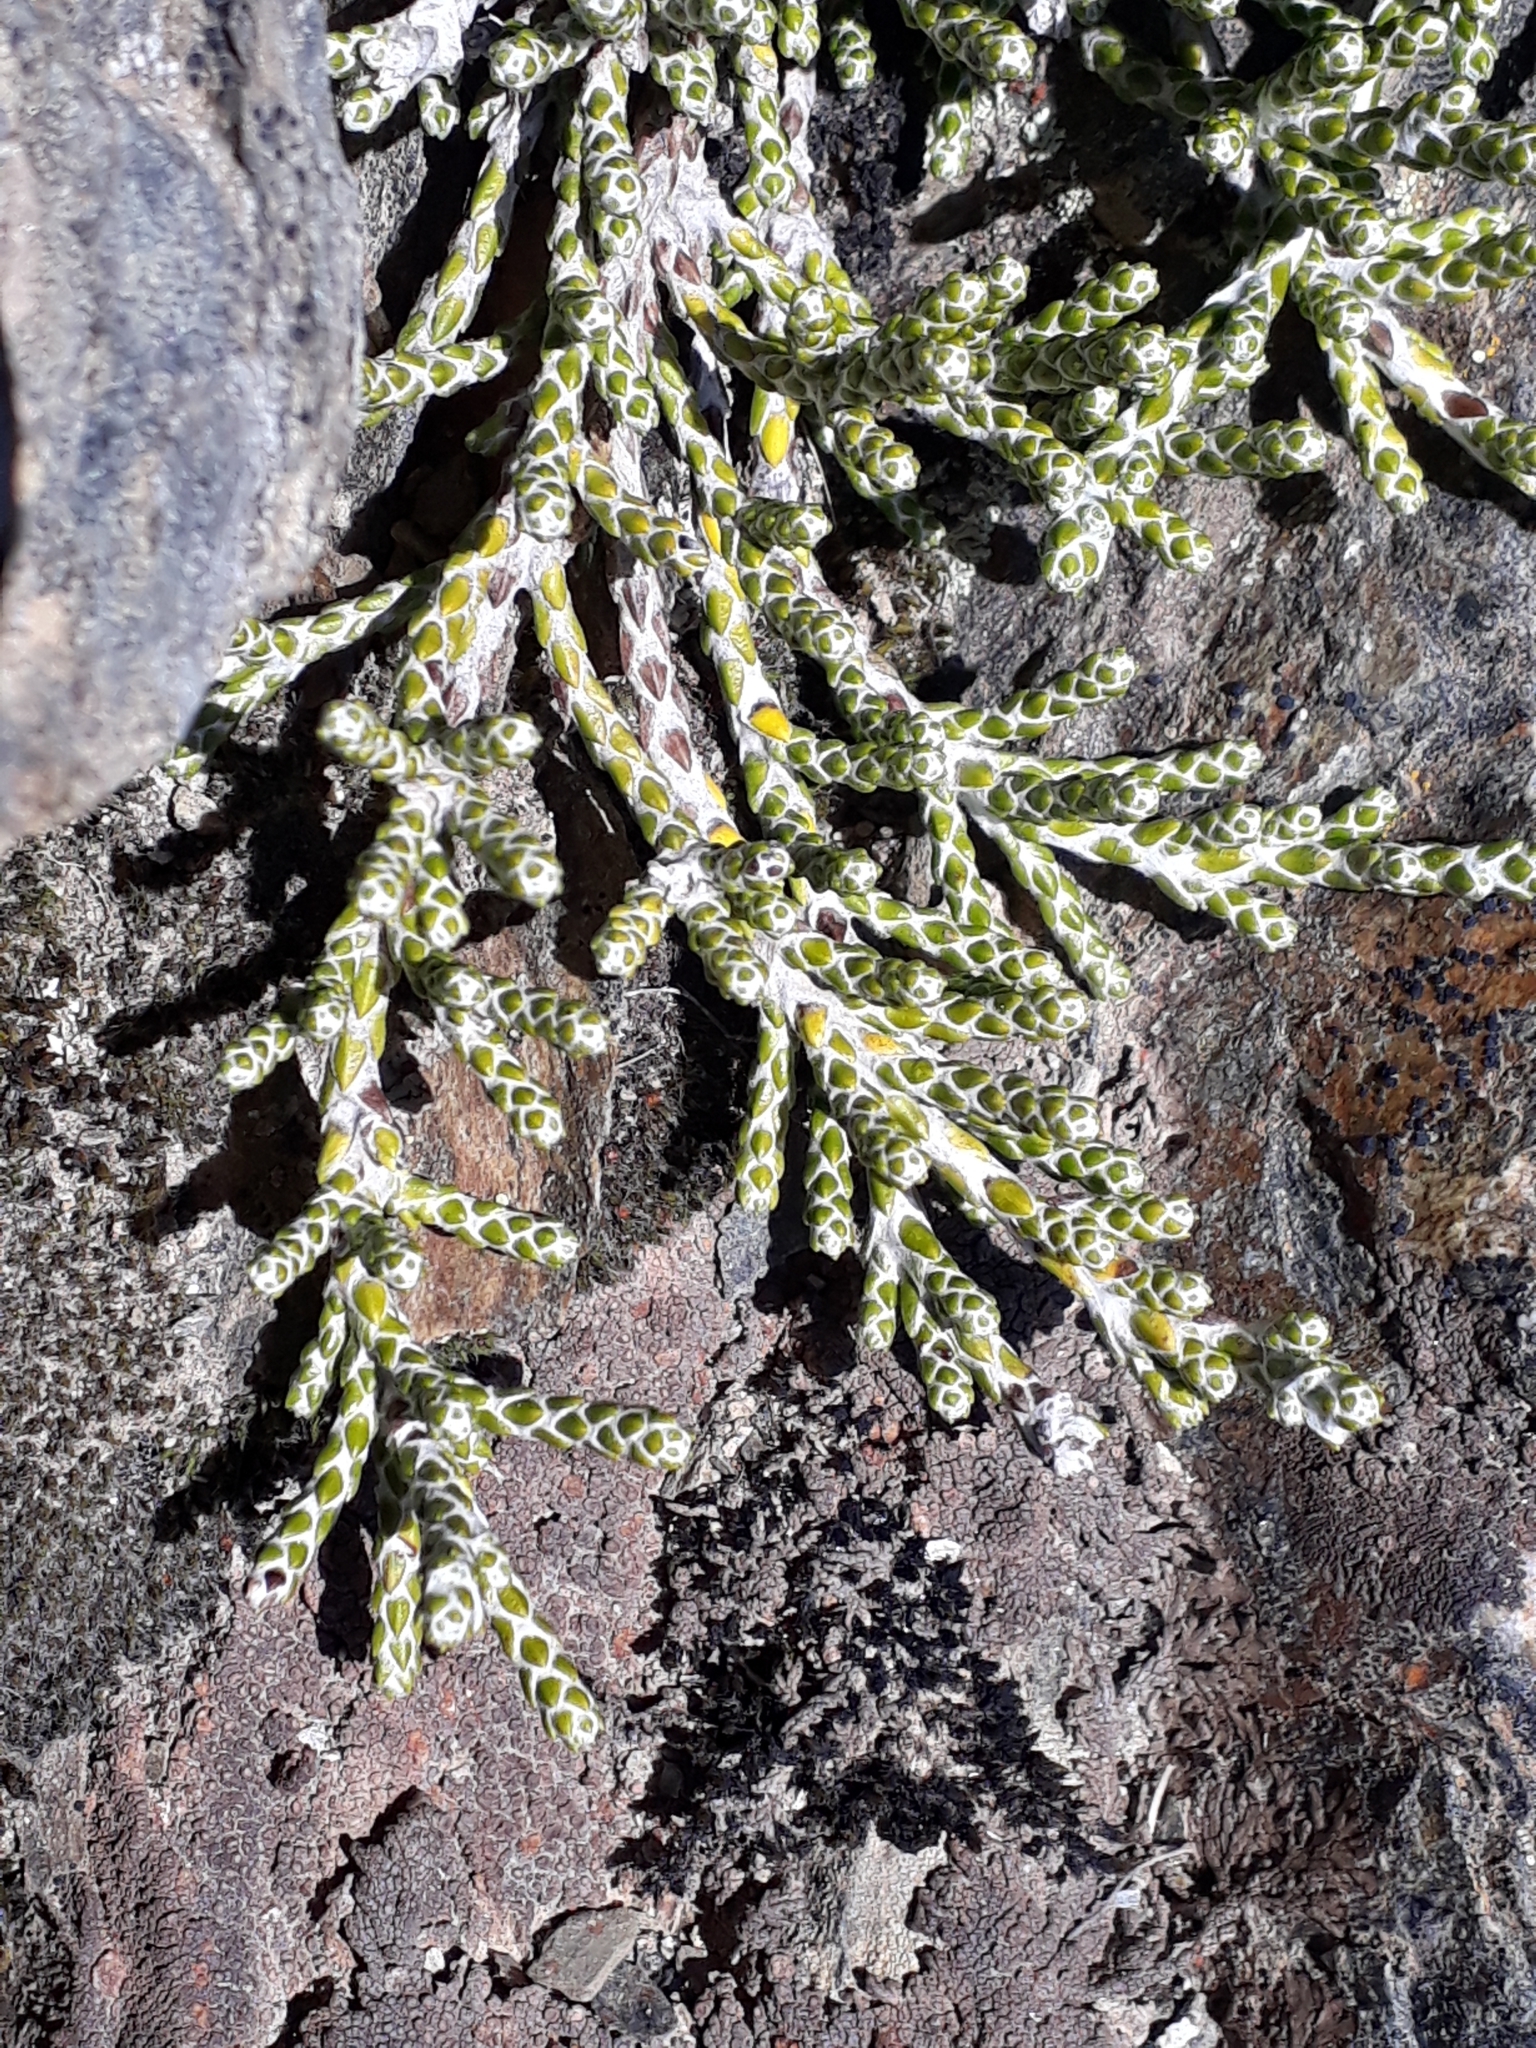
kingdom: Plantae
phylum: Tracheophyta
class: Magnoliopsida
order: Asterales
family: Asteraceae
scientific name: Asteraceae
